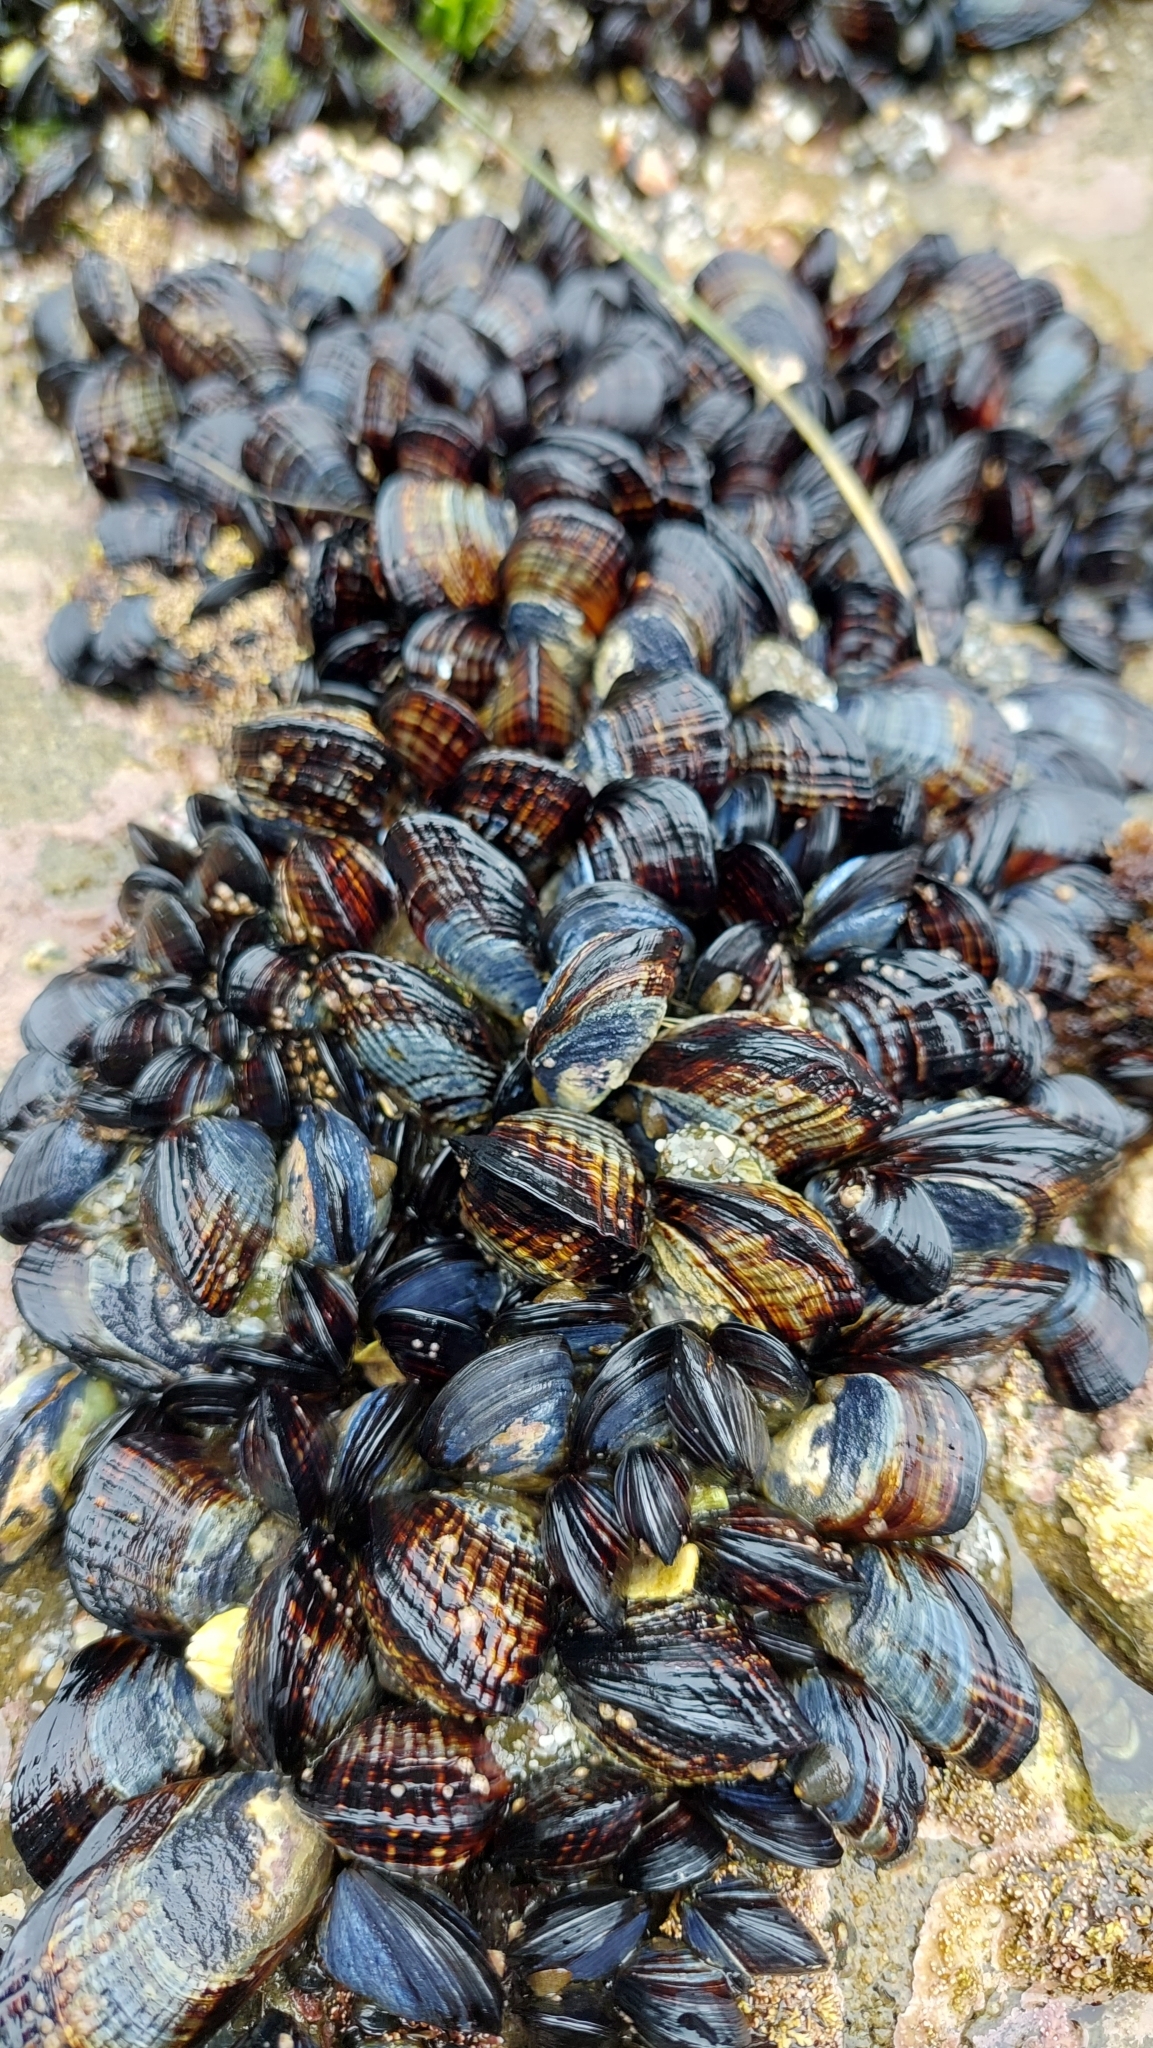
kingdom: Animalia
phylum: Mollusca
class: Bivalvia
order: Mytilida
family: Mytilidae
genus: Mytilus
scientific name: Mytilus californianus
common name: California mussel
